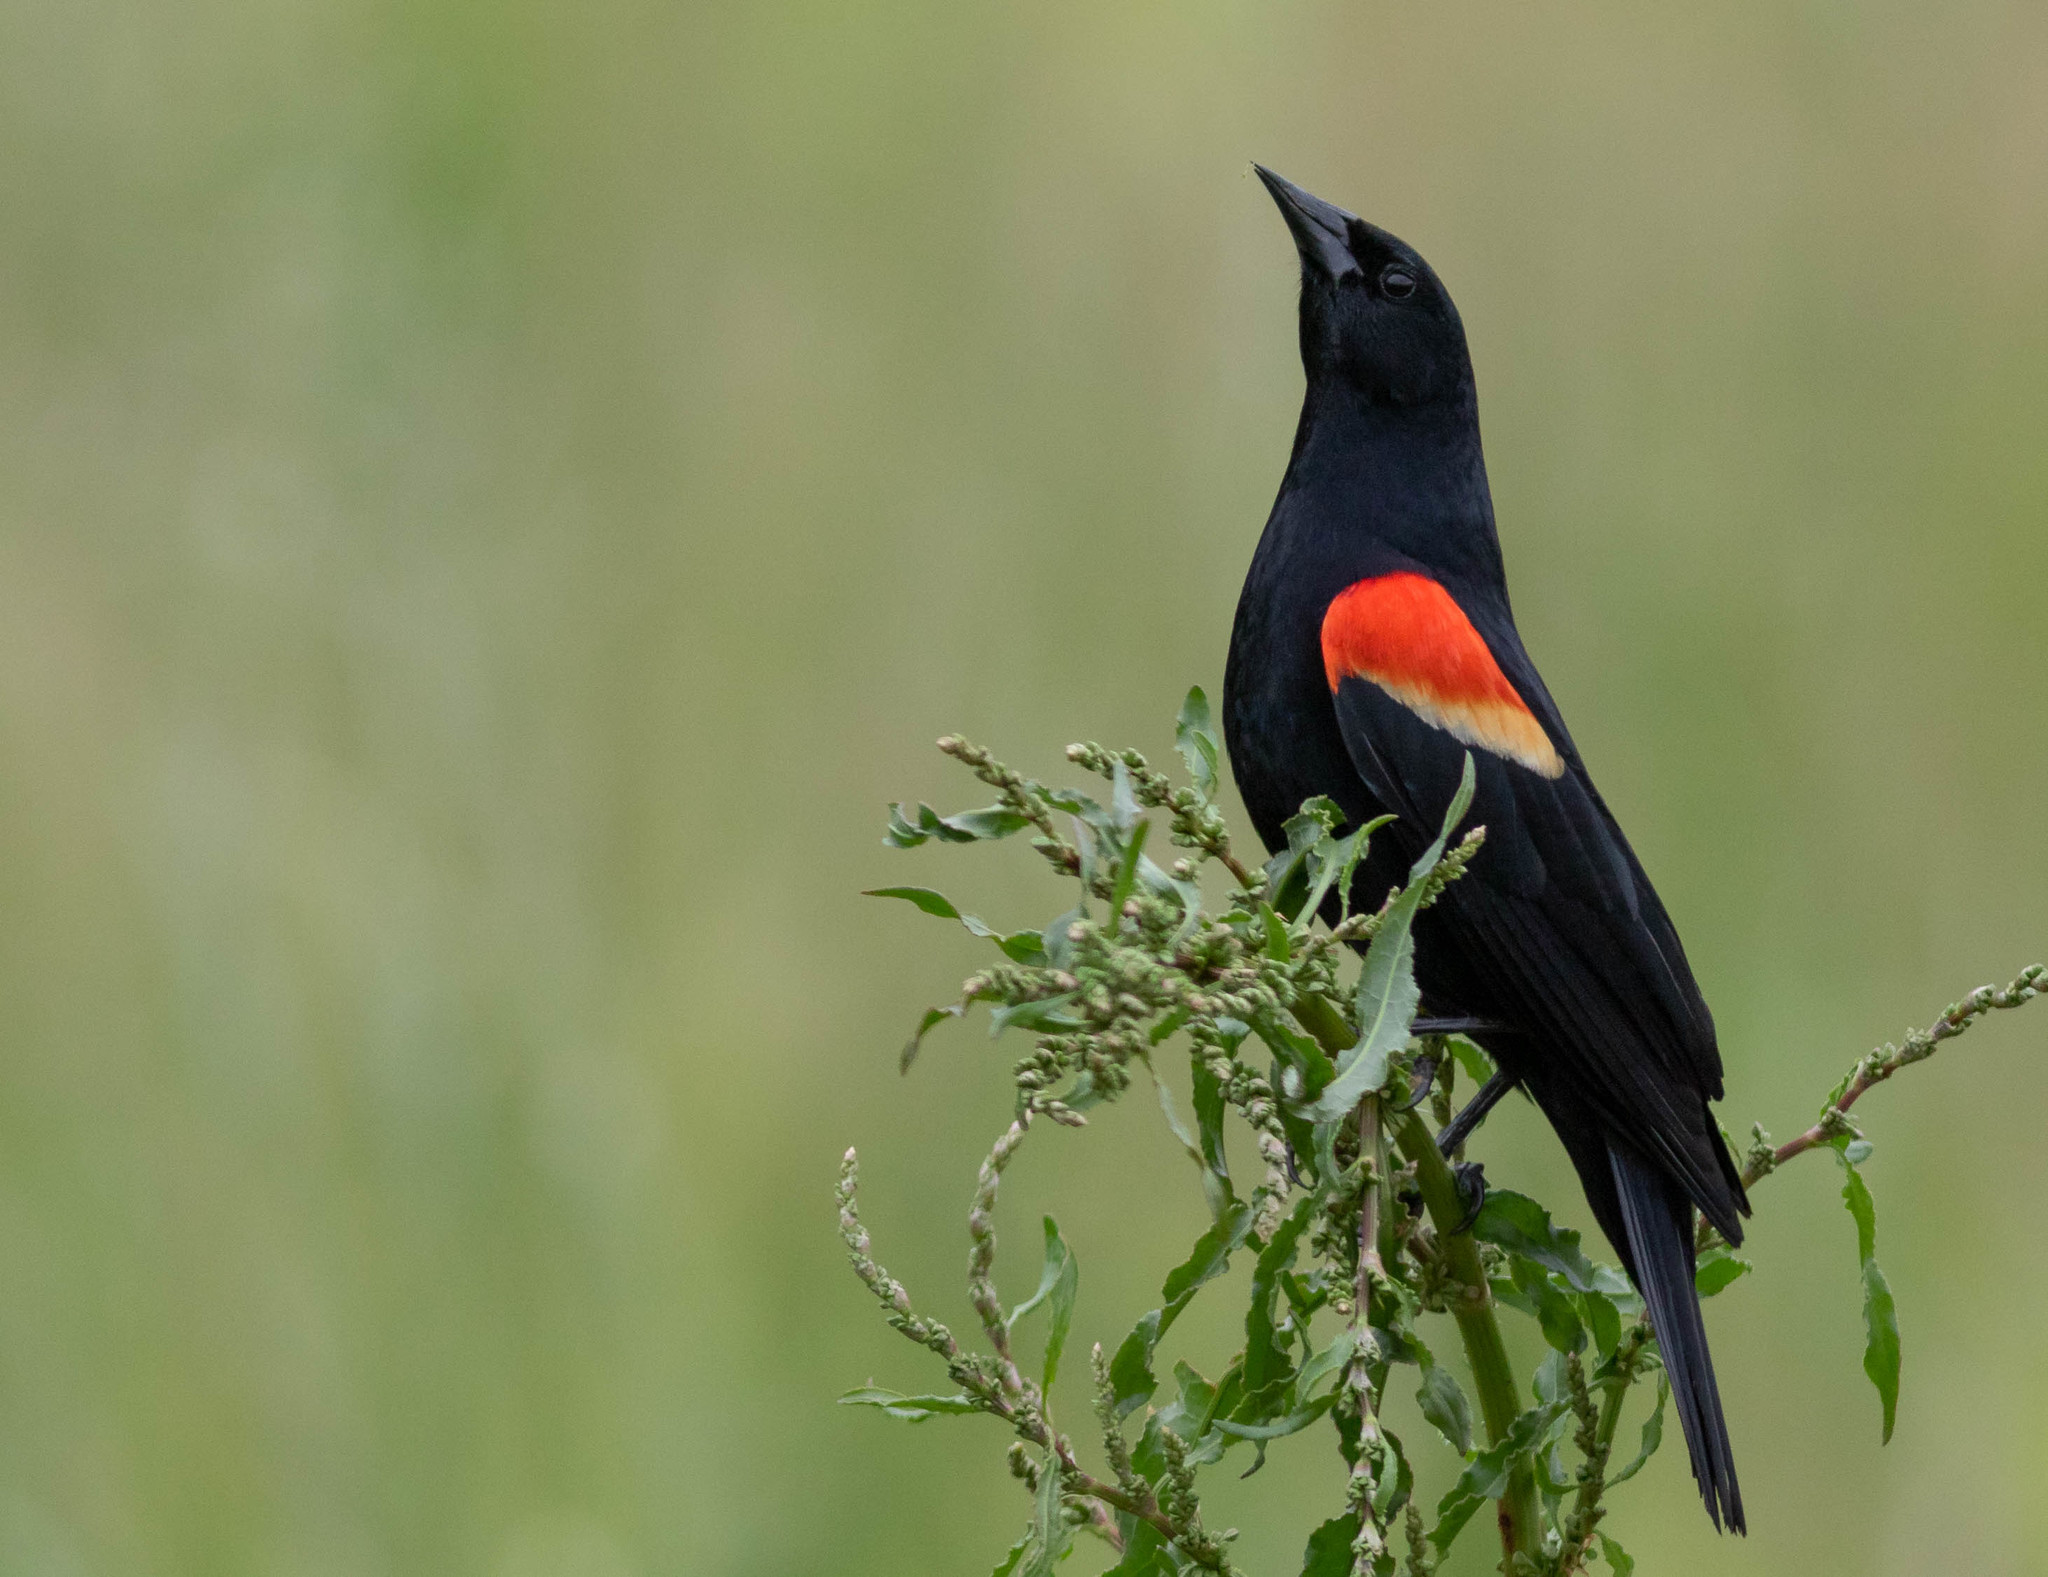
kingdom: Animalia
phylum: Chordata
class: Aves
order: Passeriformes
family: Icteridae
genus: Agelaius
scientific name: Agelaius phoeniceus
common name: Red-winged blackbird
